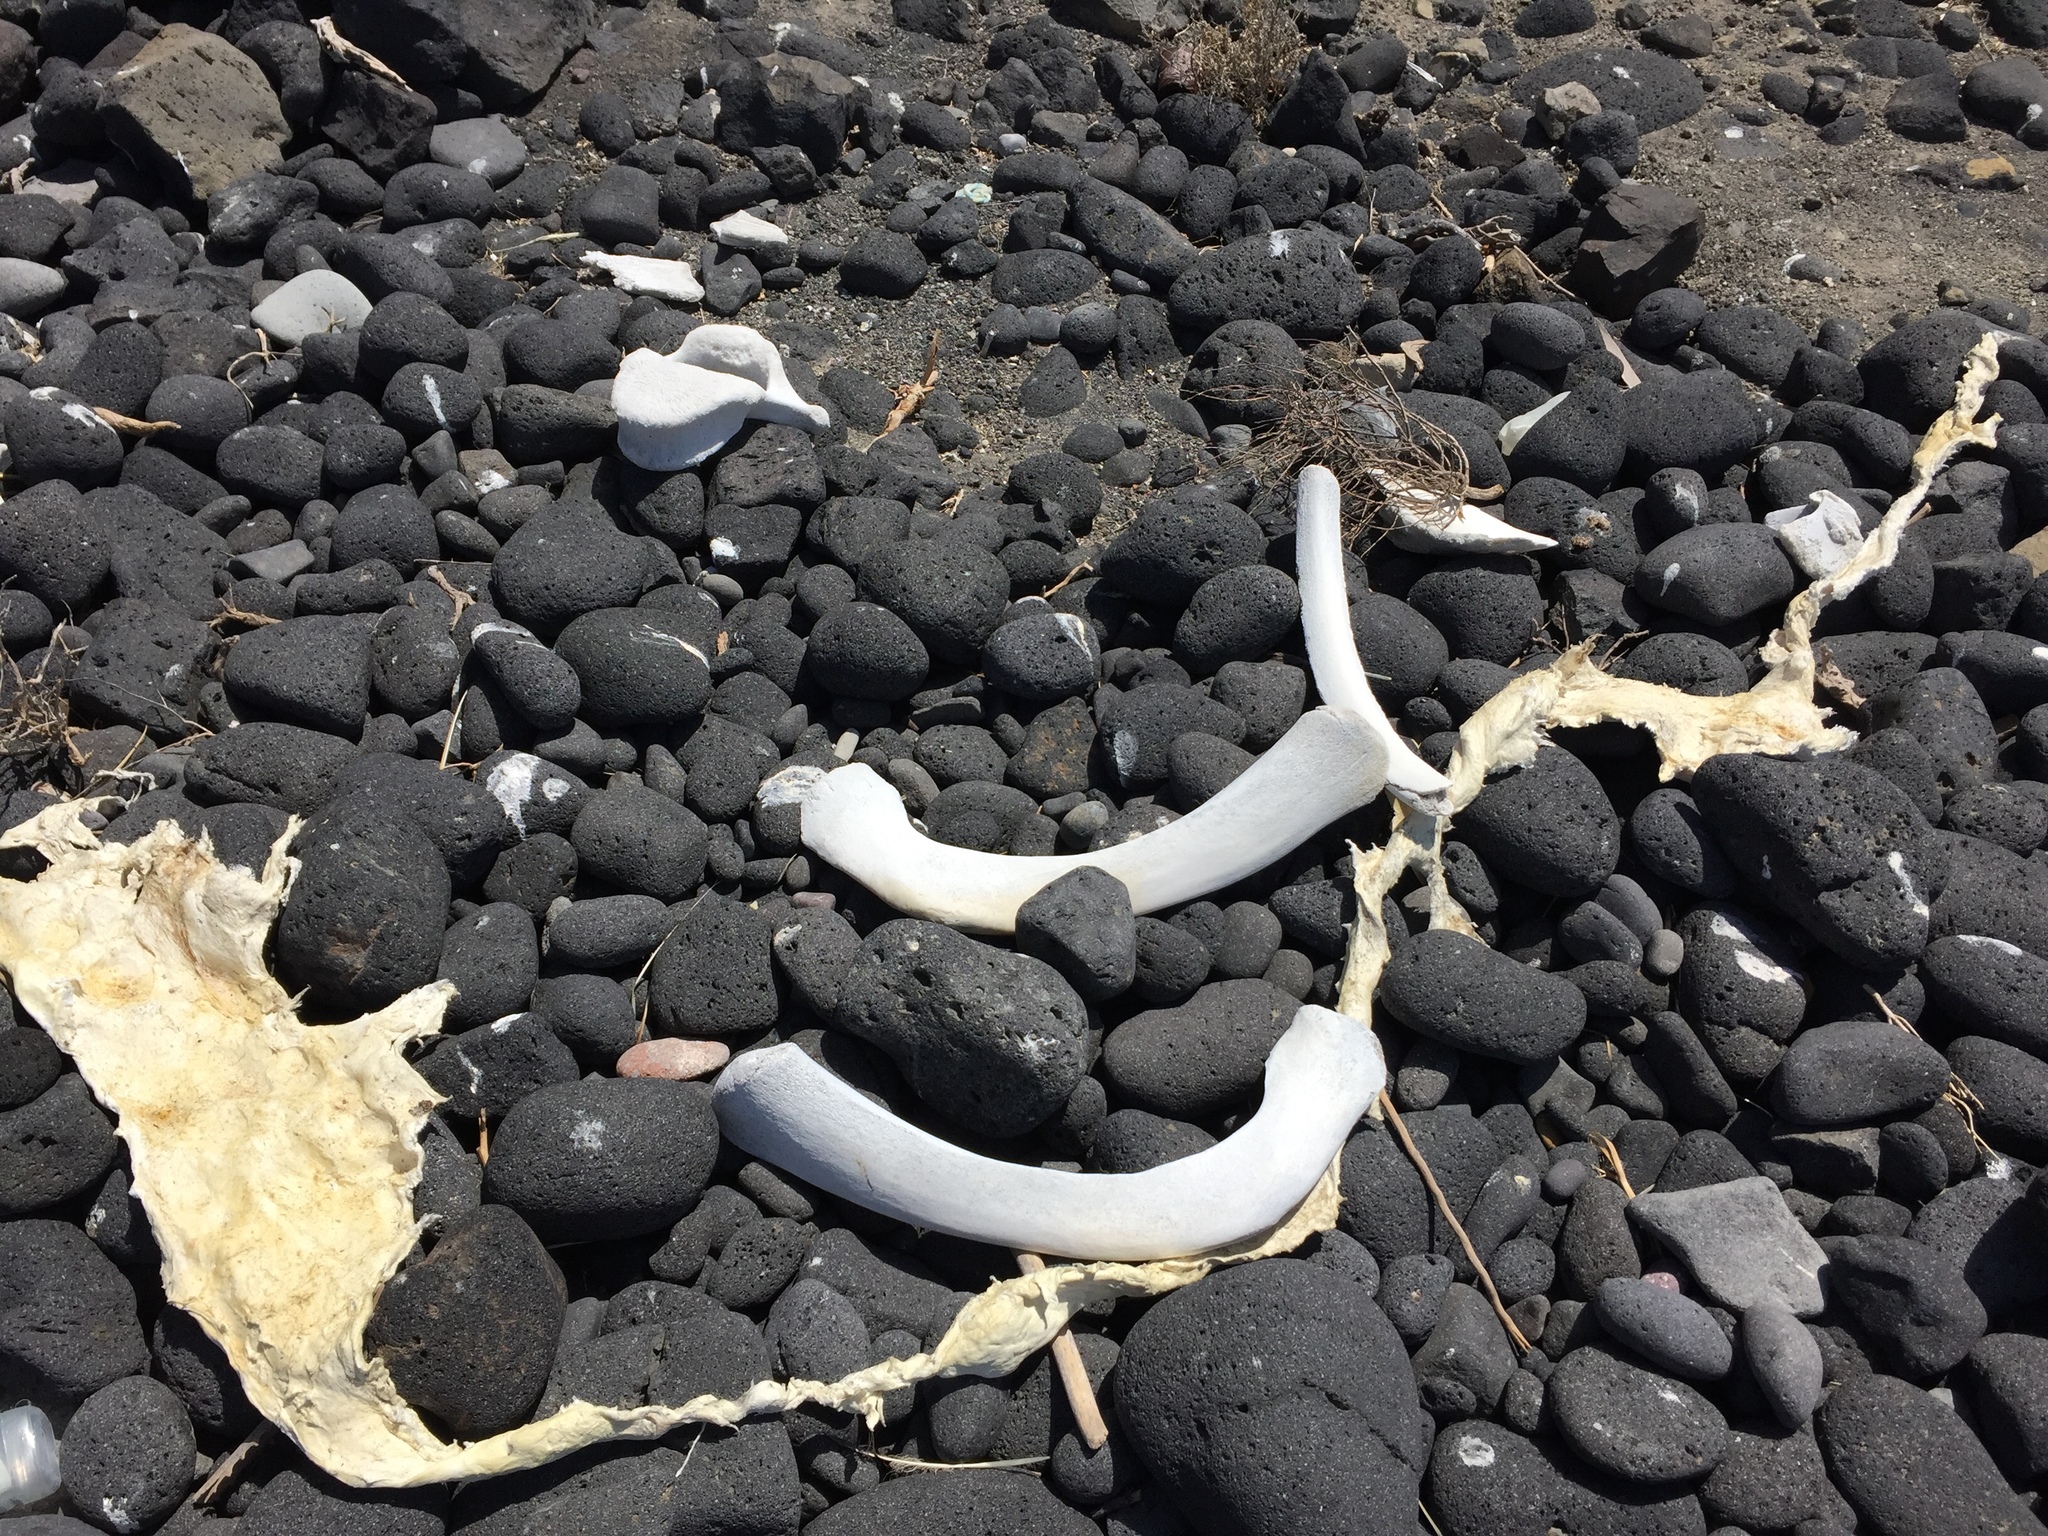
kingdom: Animalia
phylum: Chordata
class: Mammalia
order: Cetacea
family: Physeteridae
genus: Physeter
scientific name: Physeter macrocephalus
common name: Sperm whale
